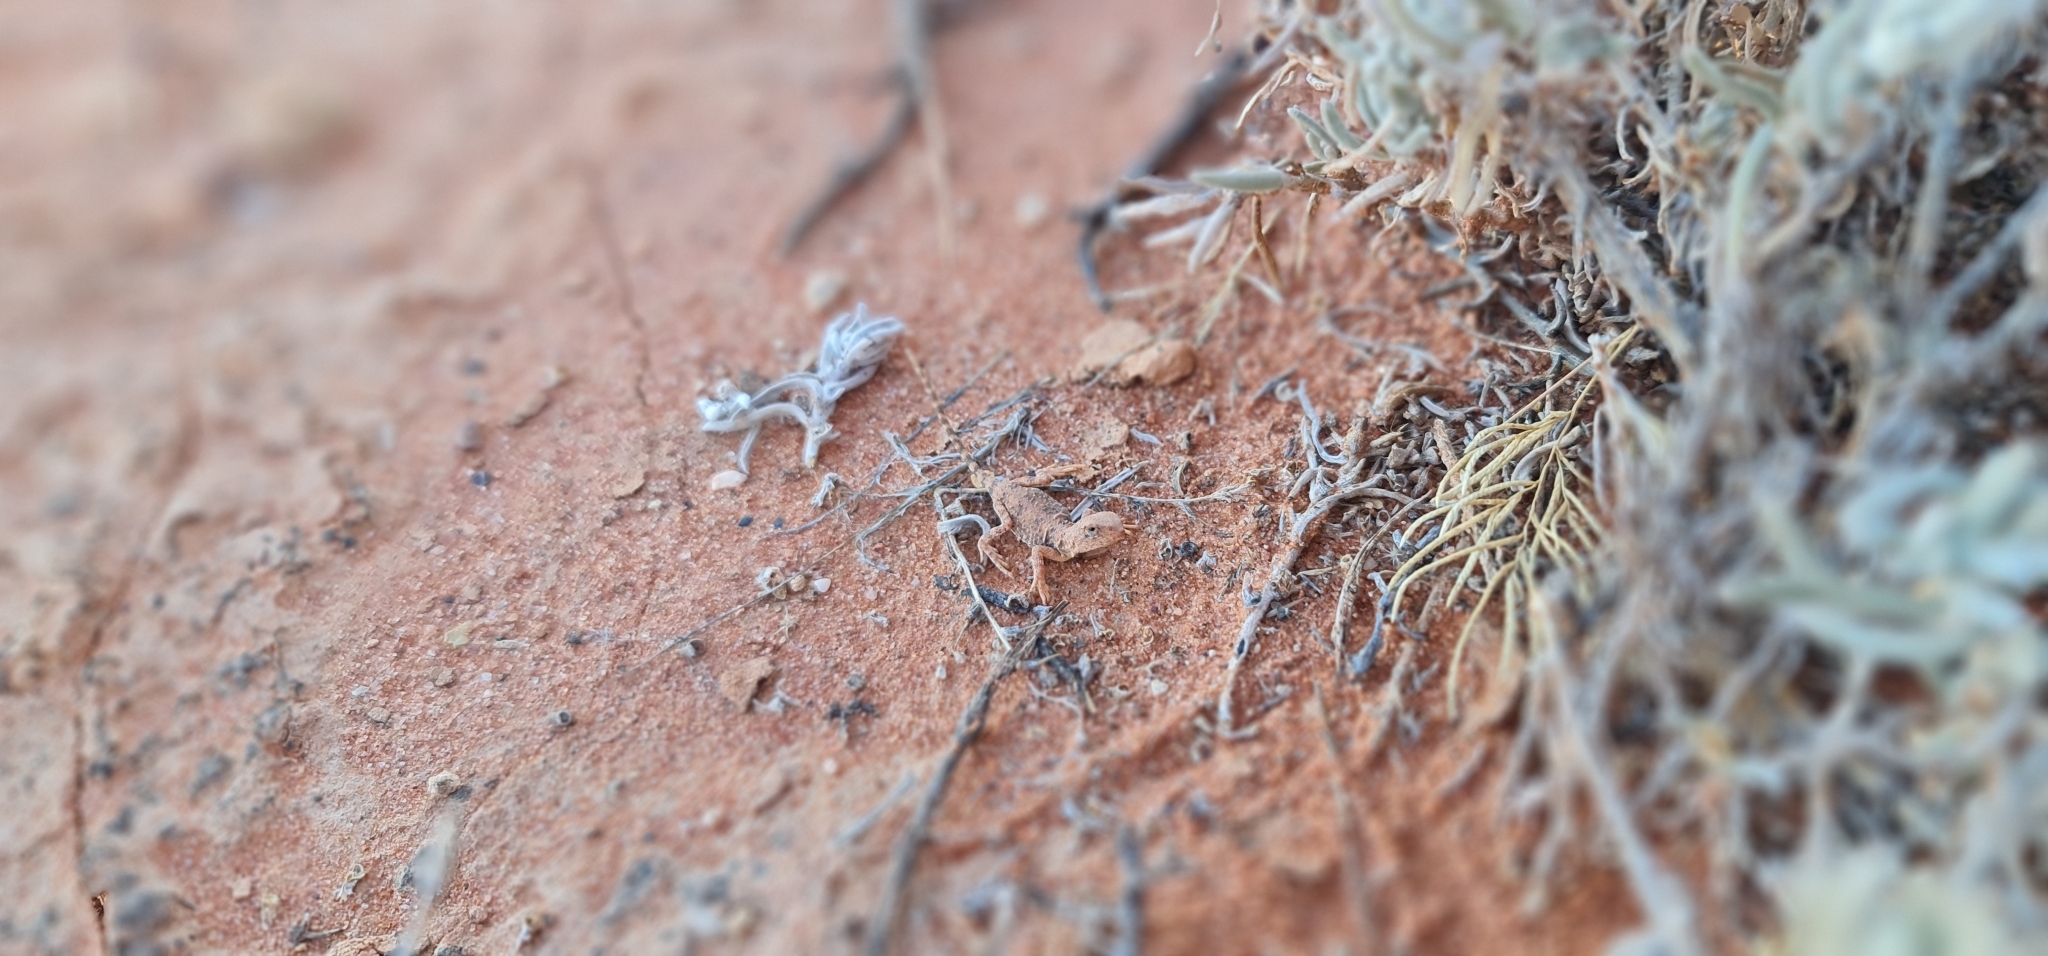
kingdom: Animalia
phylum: Chordata
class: Squamata
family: Agamidae
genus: Tympanocryptis
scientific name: Tympanocryptis intima
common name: Gibber earless dragon
